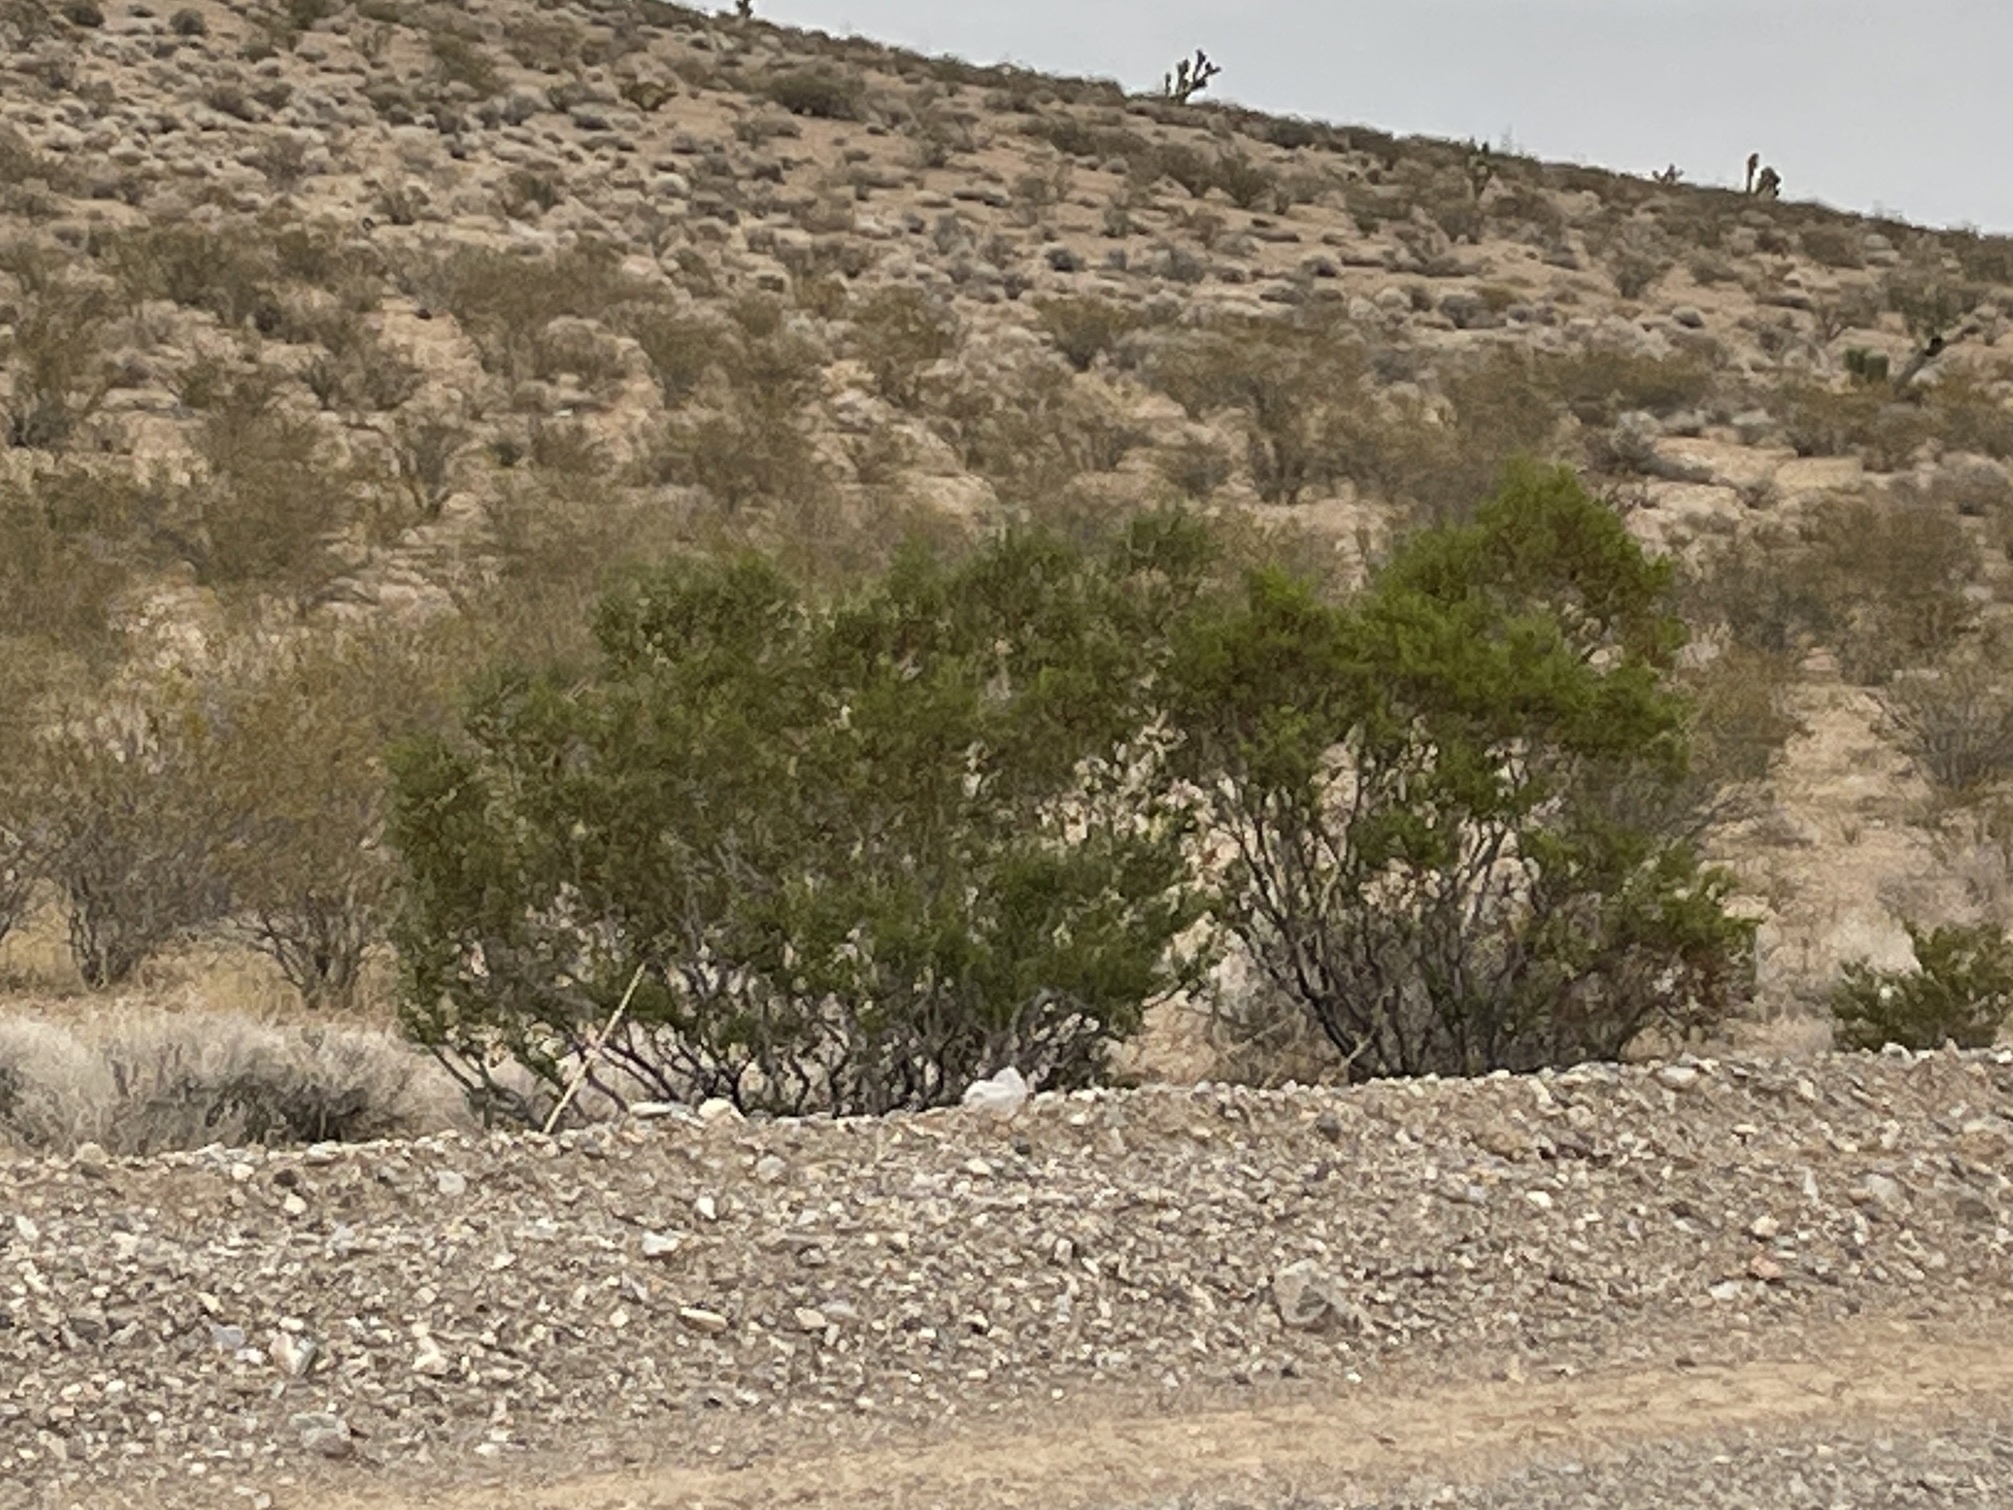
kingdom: Plantae
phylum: Tracheophyta
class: Magnoliopsida
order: Zygophyllales
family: Zygophyllaceae
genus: Larrea
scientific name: Larrea tridentata
